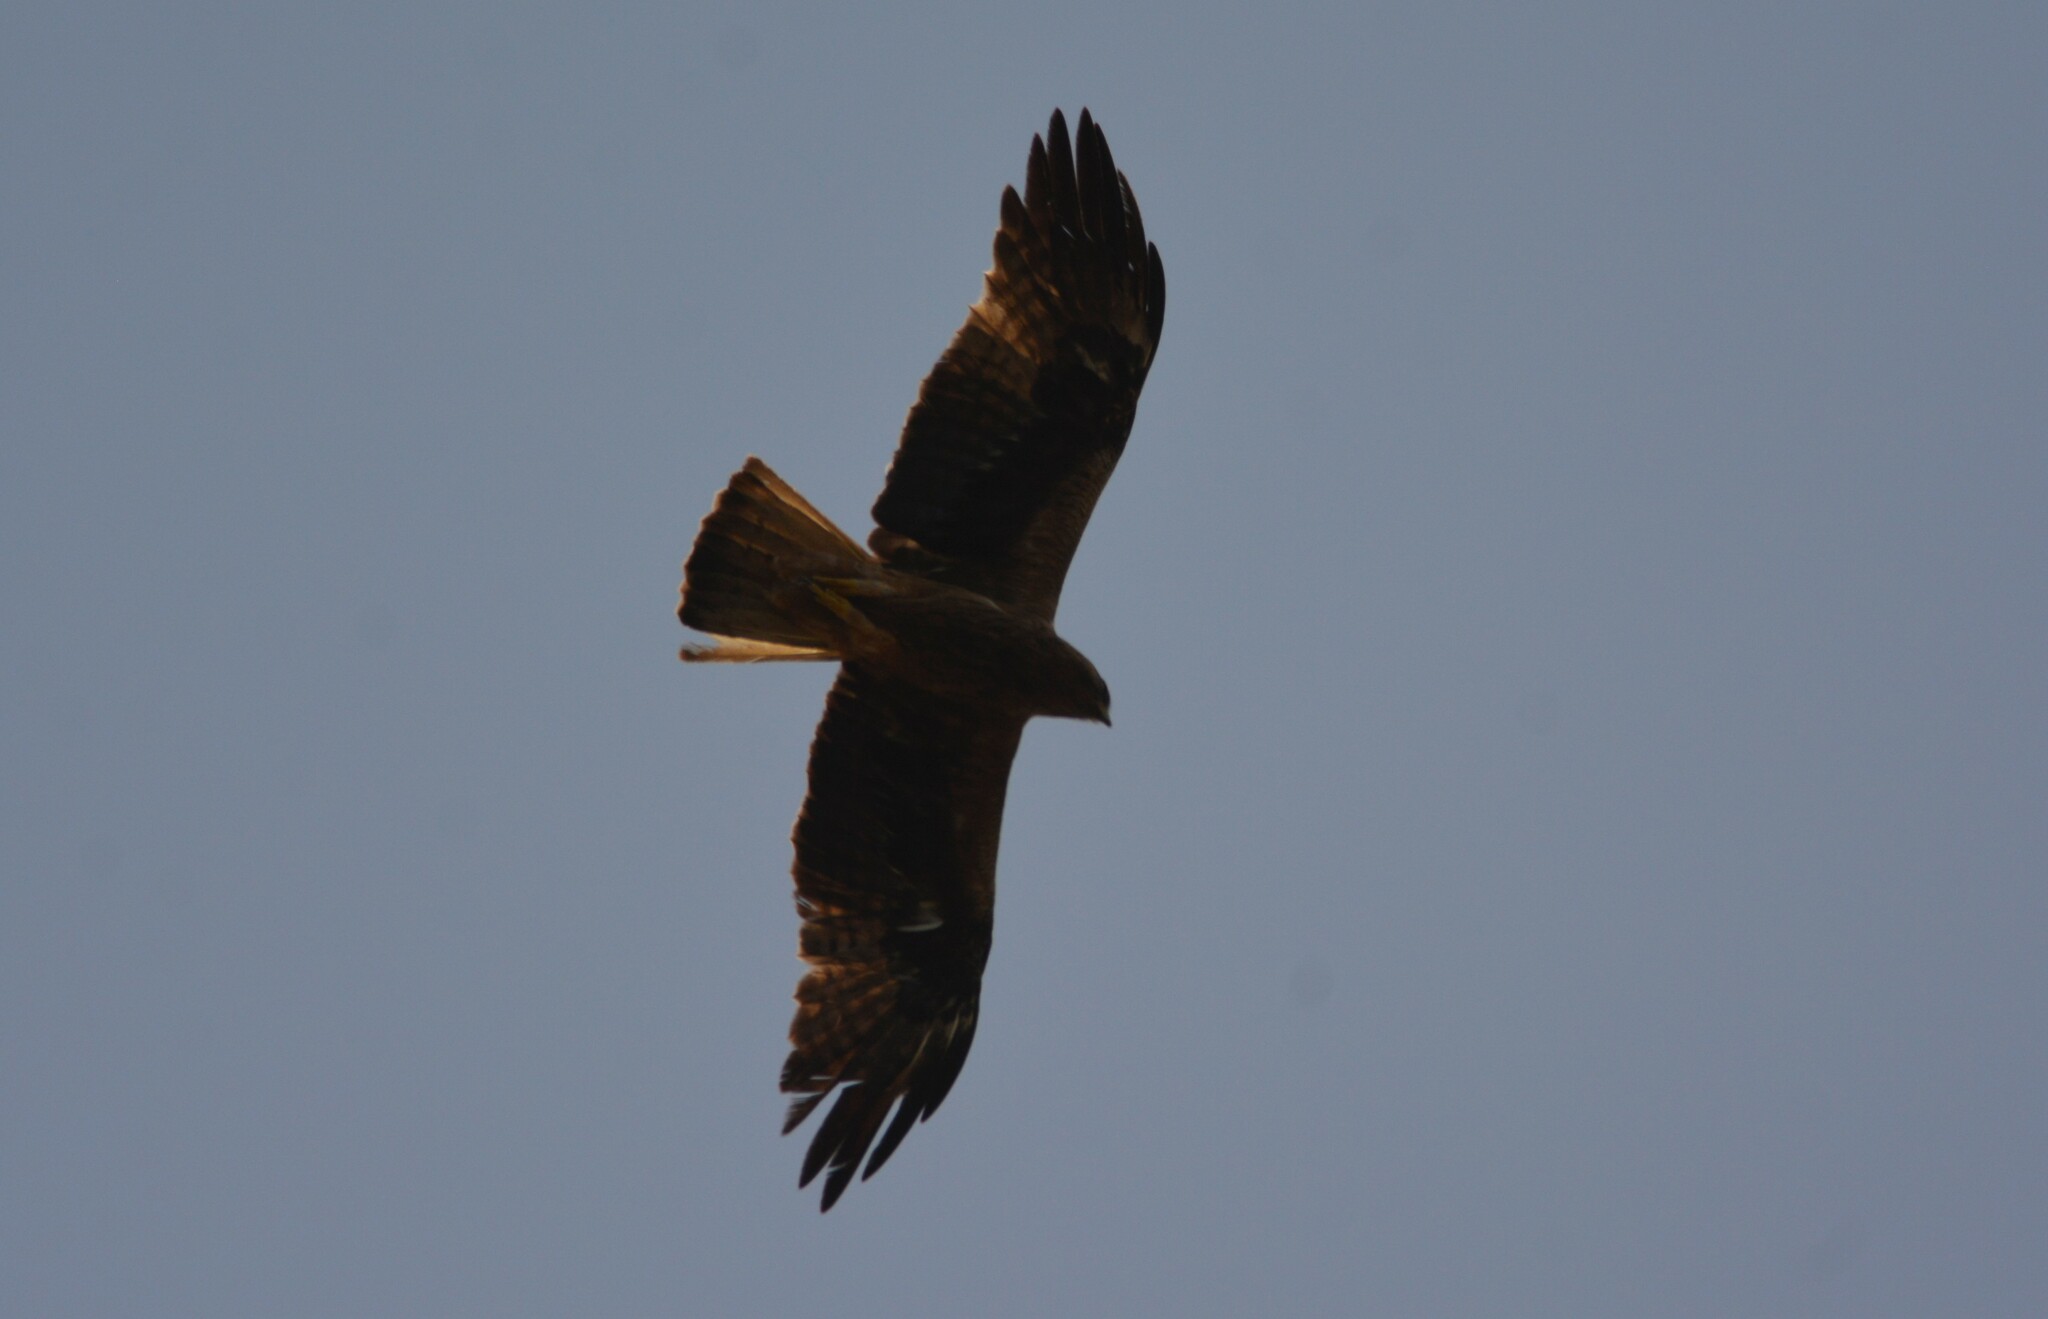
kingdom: Animalia
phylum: Chordata
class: Aves
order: Accipitriformes
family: Accipitridae
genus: Hieraaetus
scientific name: Hieraaetus pennatus
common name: Booted eagle
